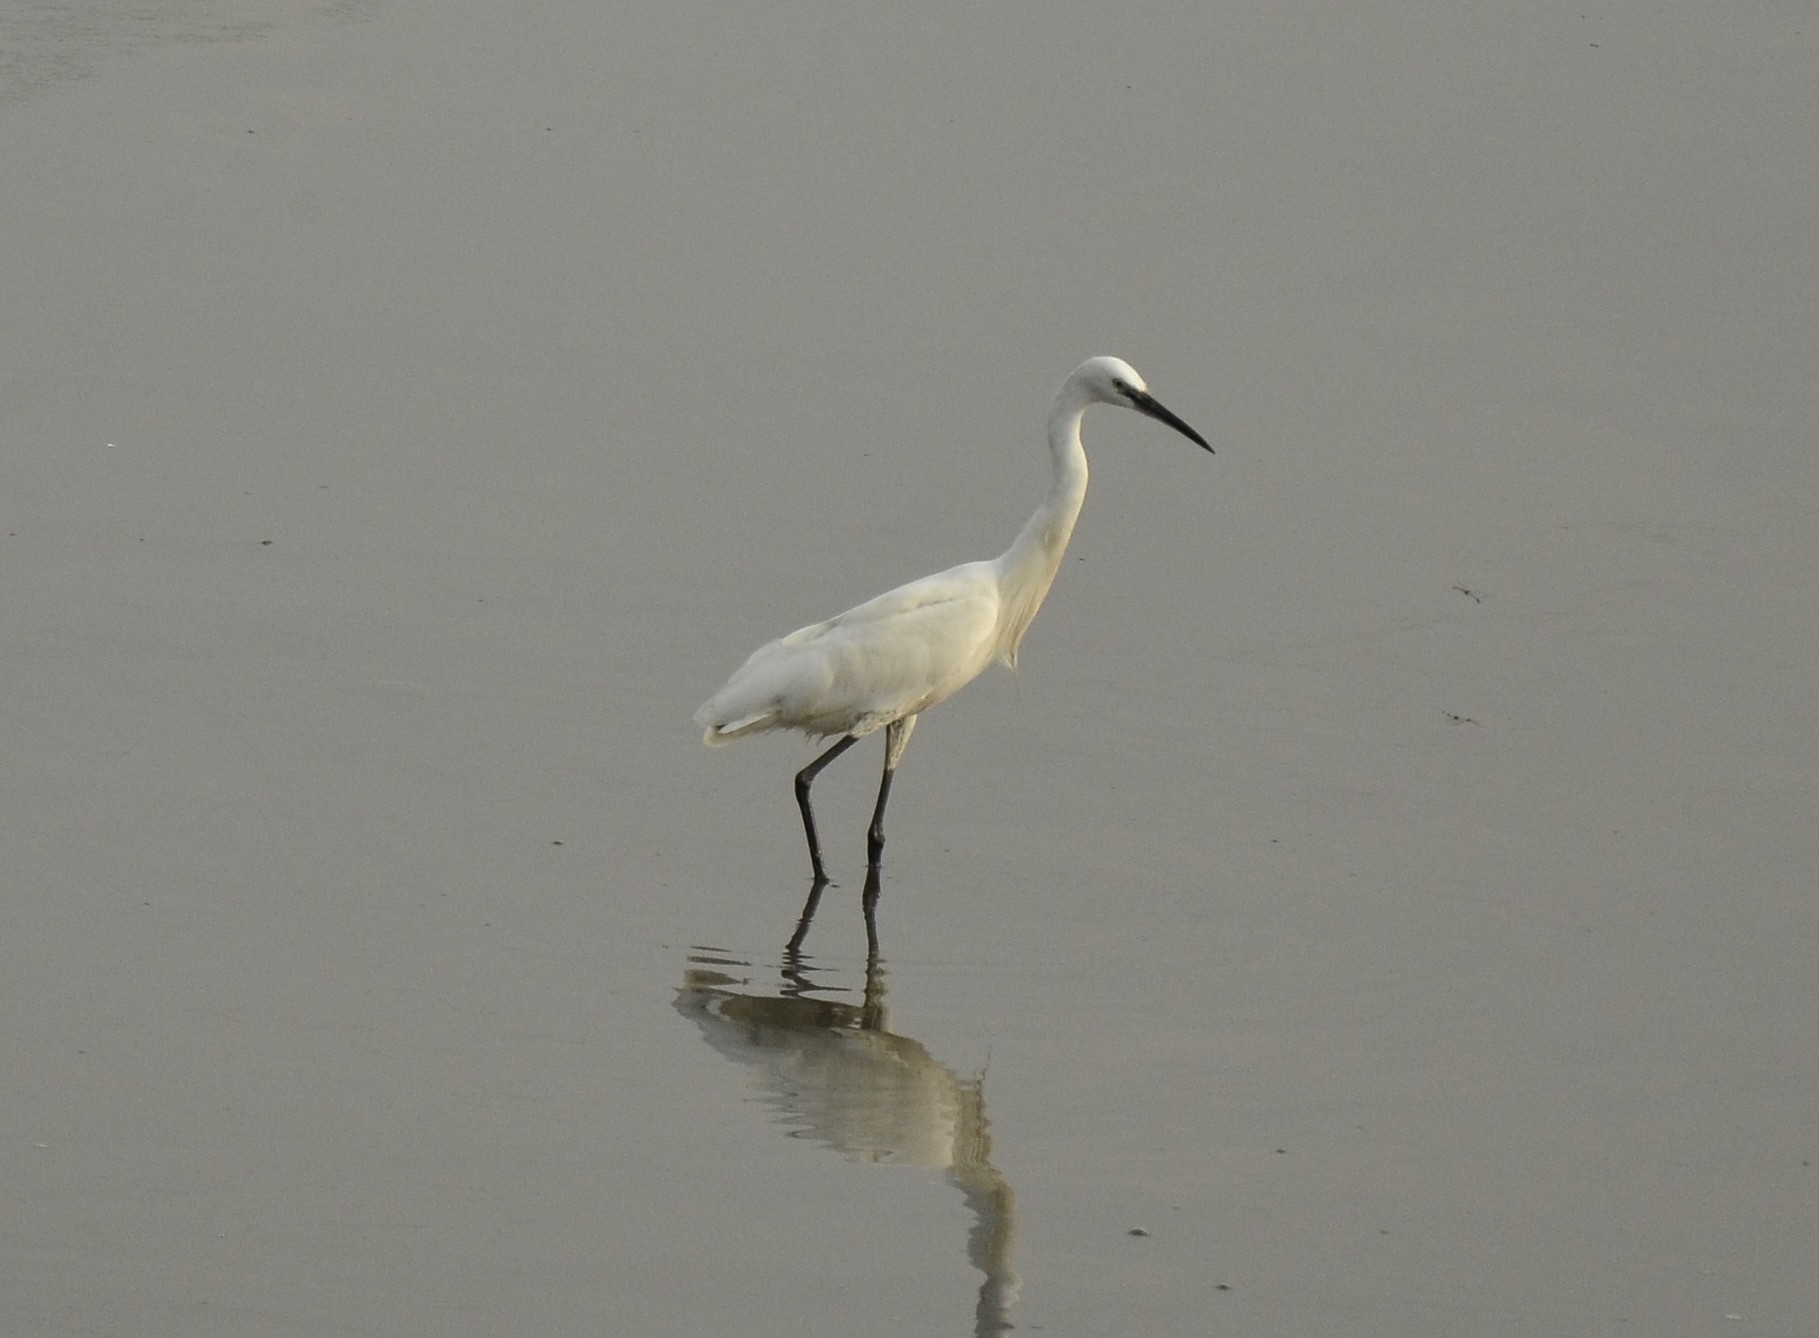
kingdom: Animalia
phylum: Chordata
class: Aves
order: Pelecaniformes
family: Ardeidae
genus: Egretta
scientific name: Egretta garzetta
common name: Little egret
